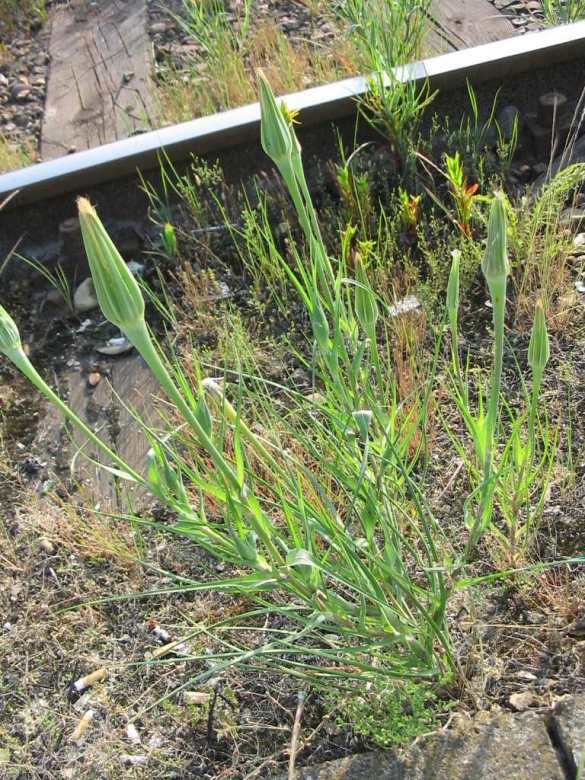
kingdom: Plantae
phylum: Tracheophyta
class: Magnoliopsida
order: Asterales
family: Asteraceae
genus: Tragopogon
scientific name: Tragopogon pratensis
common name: Goat's-beard
